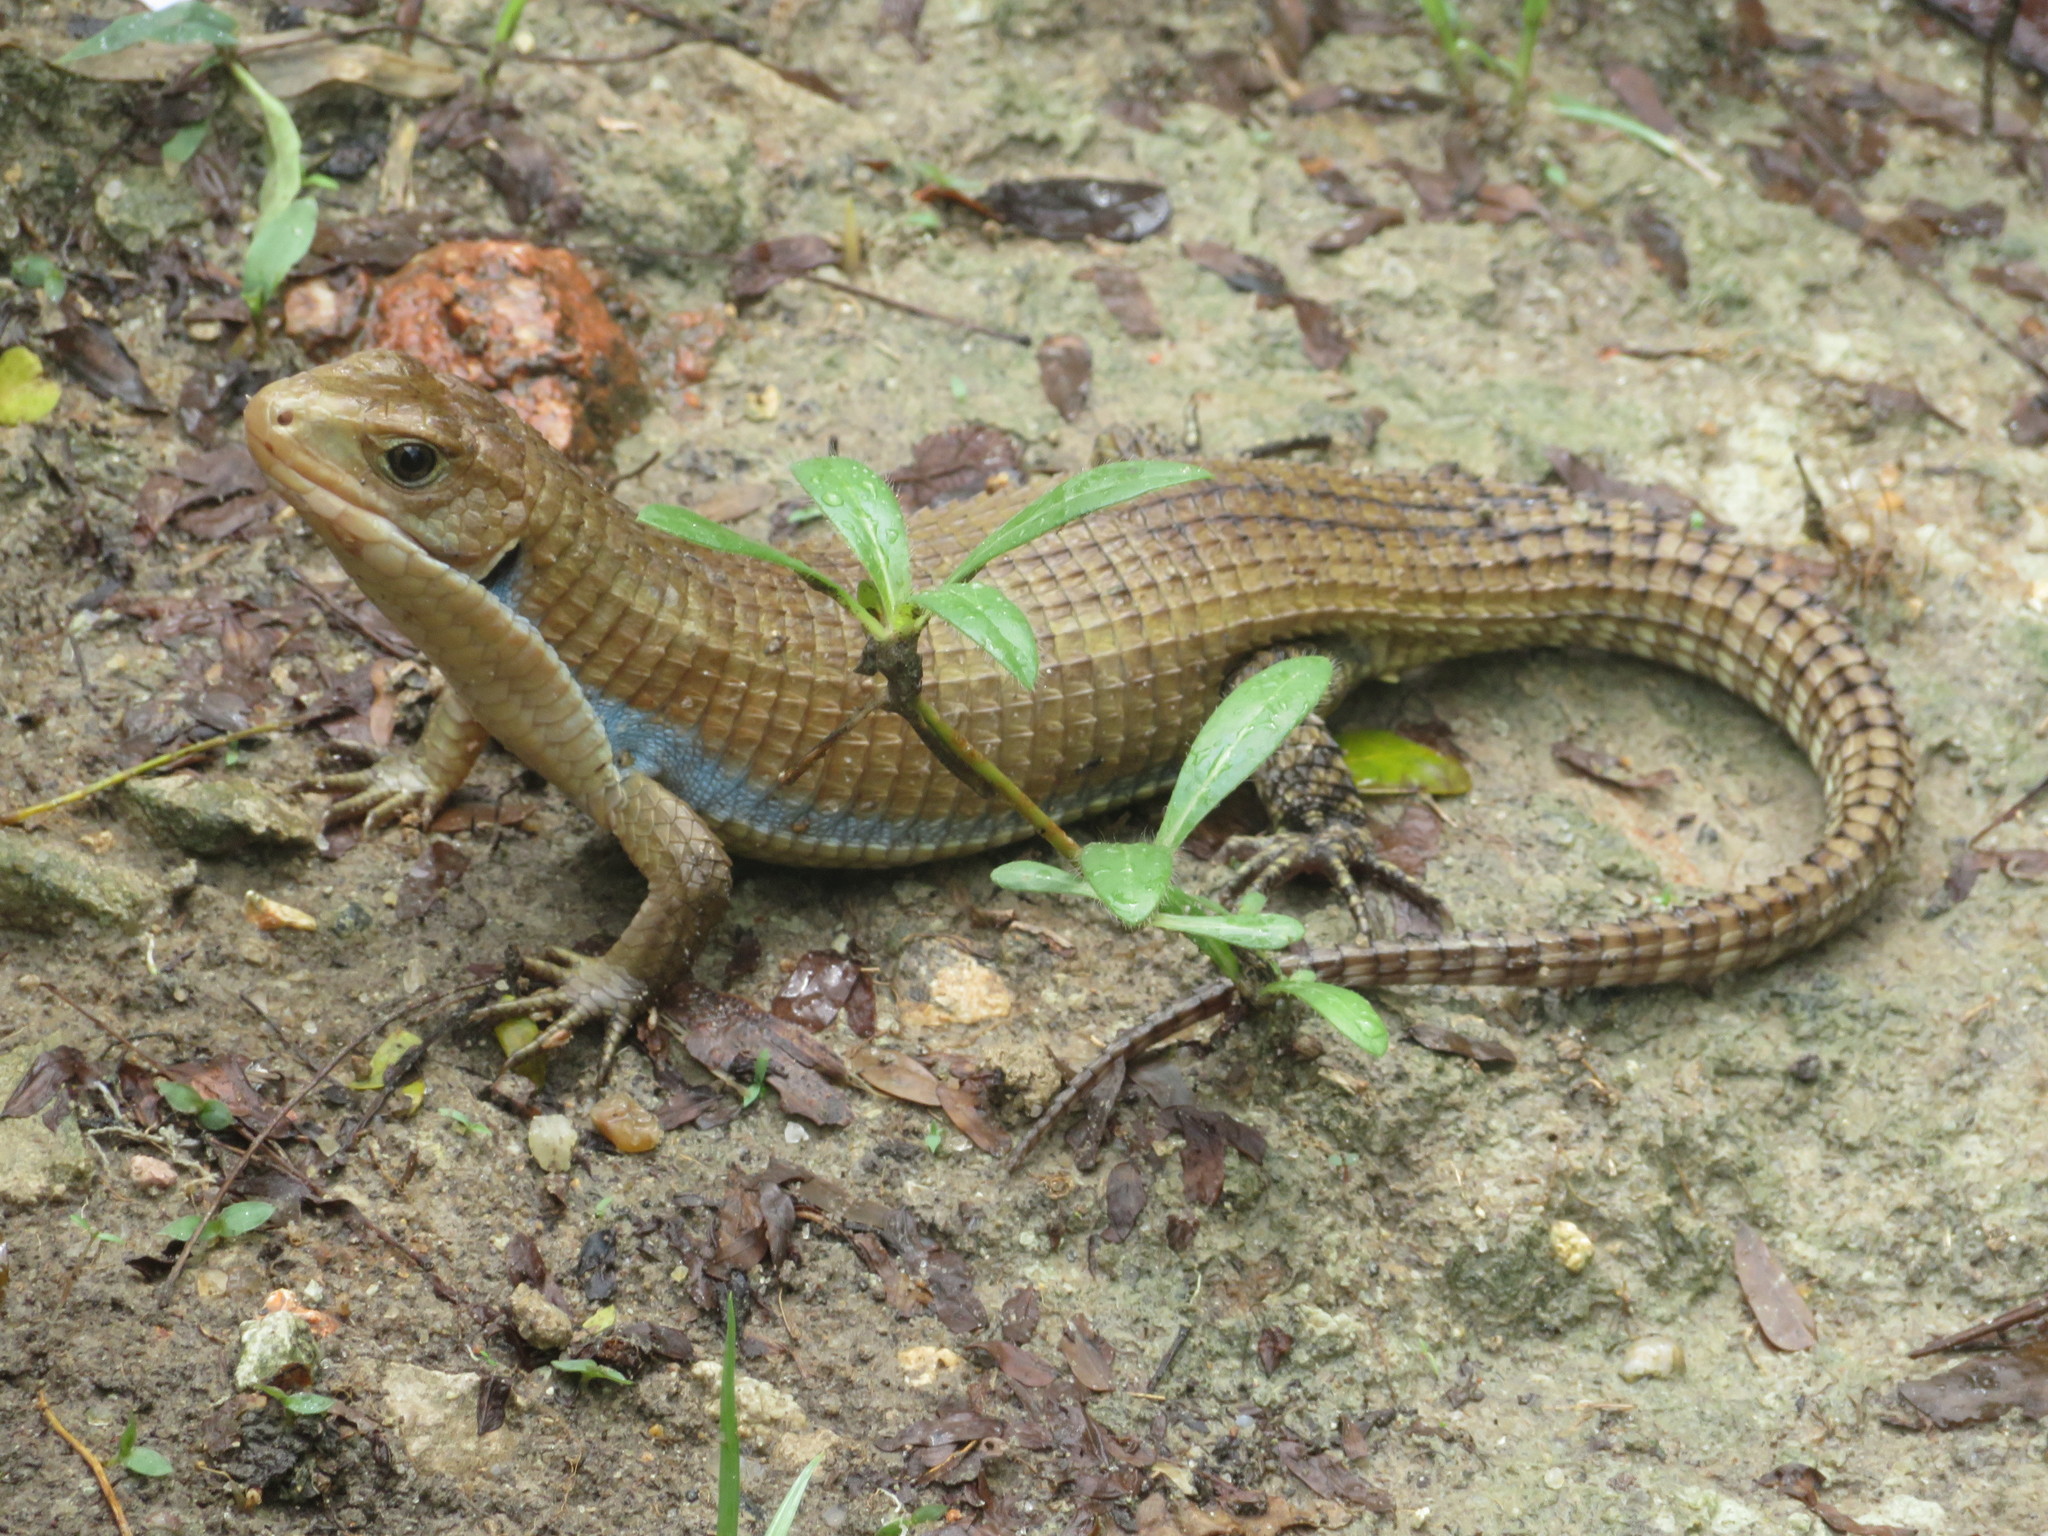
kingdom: Animalia
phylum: Chordata
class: Squamata
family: Gerrhosauridae
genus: Broadleysaurus
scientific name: Broadleysaurus major
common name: Rough-scaled plated lizard
